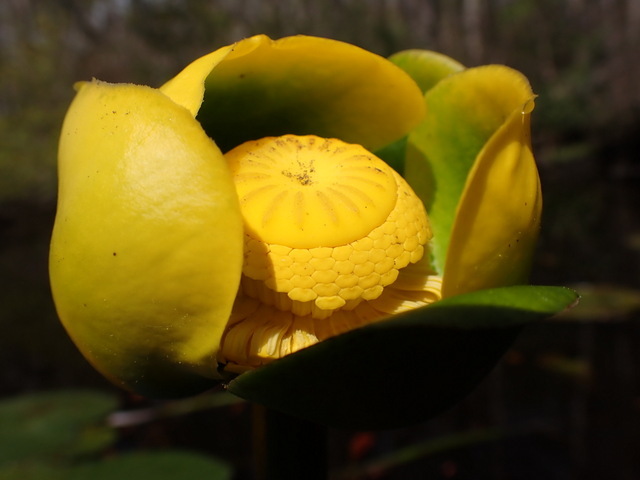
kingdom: Plantae
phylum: Tracheophyta
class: Magnoliopsida
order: Nymphaeales
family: Nymphaeaceae
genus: Nuphar
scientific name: Nuphar advena
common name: Spatter-dock
